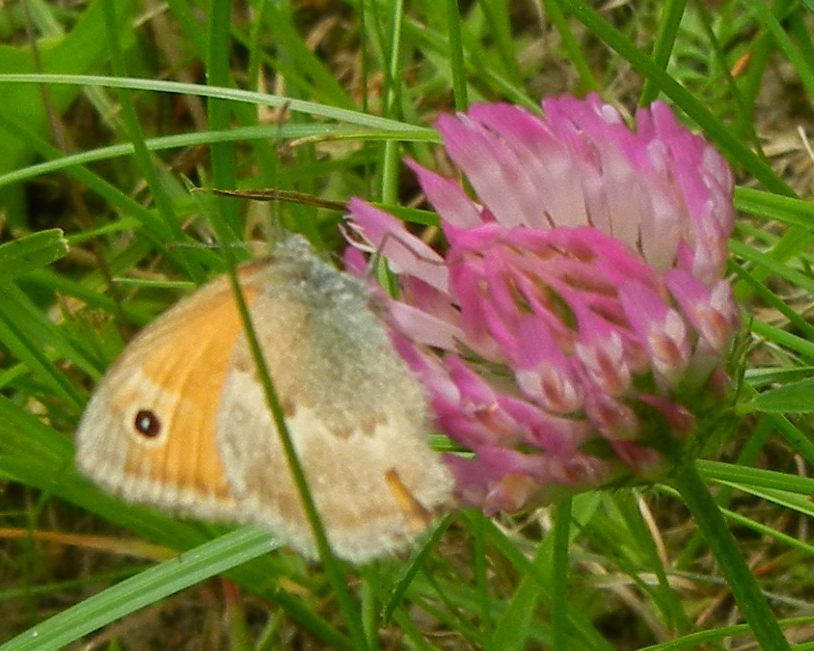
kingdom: Animalia
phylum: Arthropoda
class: Insecta
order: Lepidoptera
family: Nymphalidae
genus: Coenonympha
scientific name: Coenonympha pamphilus
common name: Small heath
